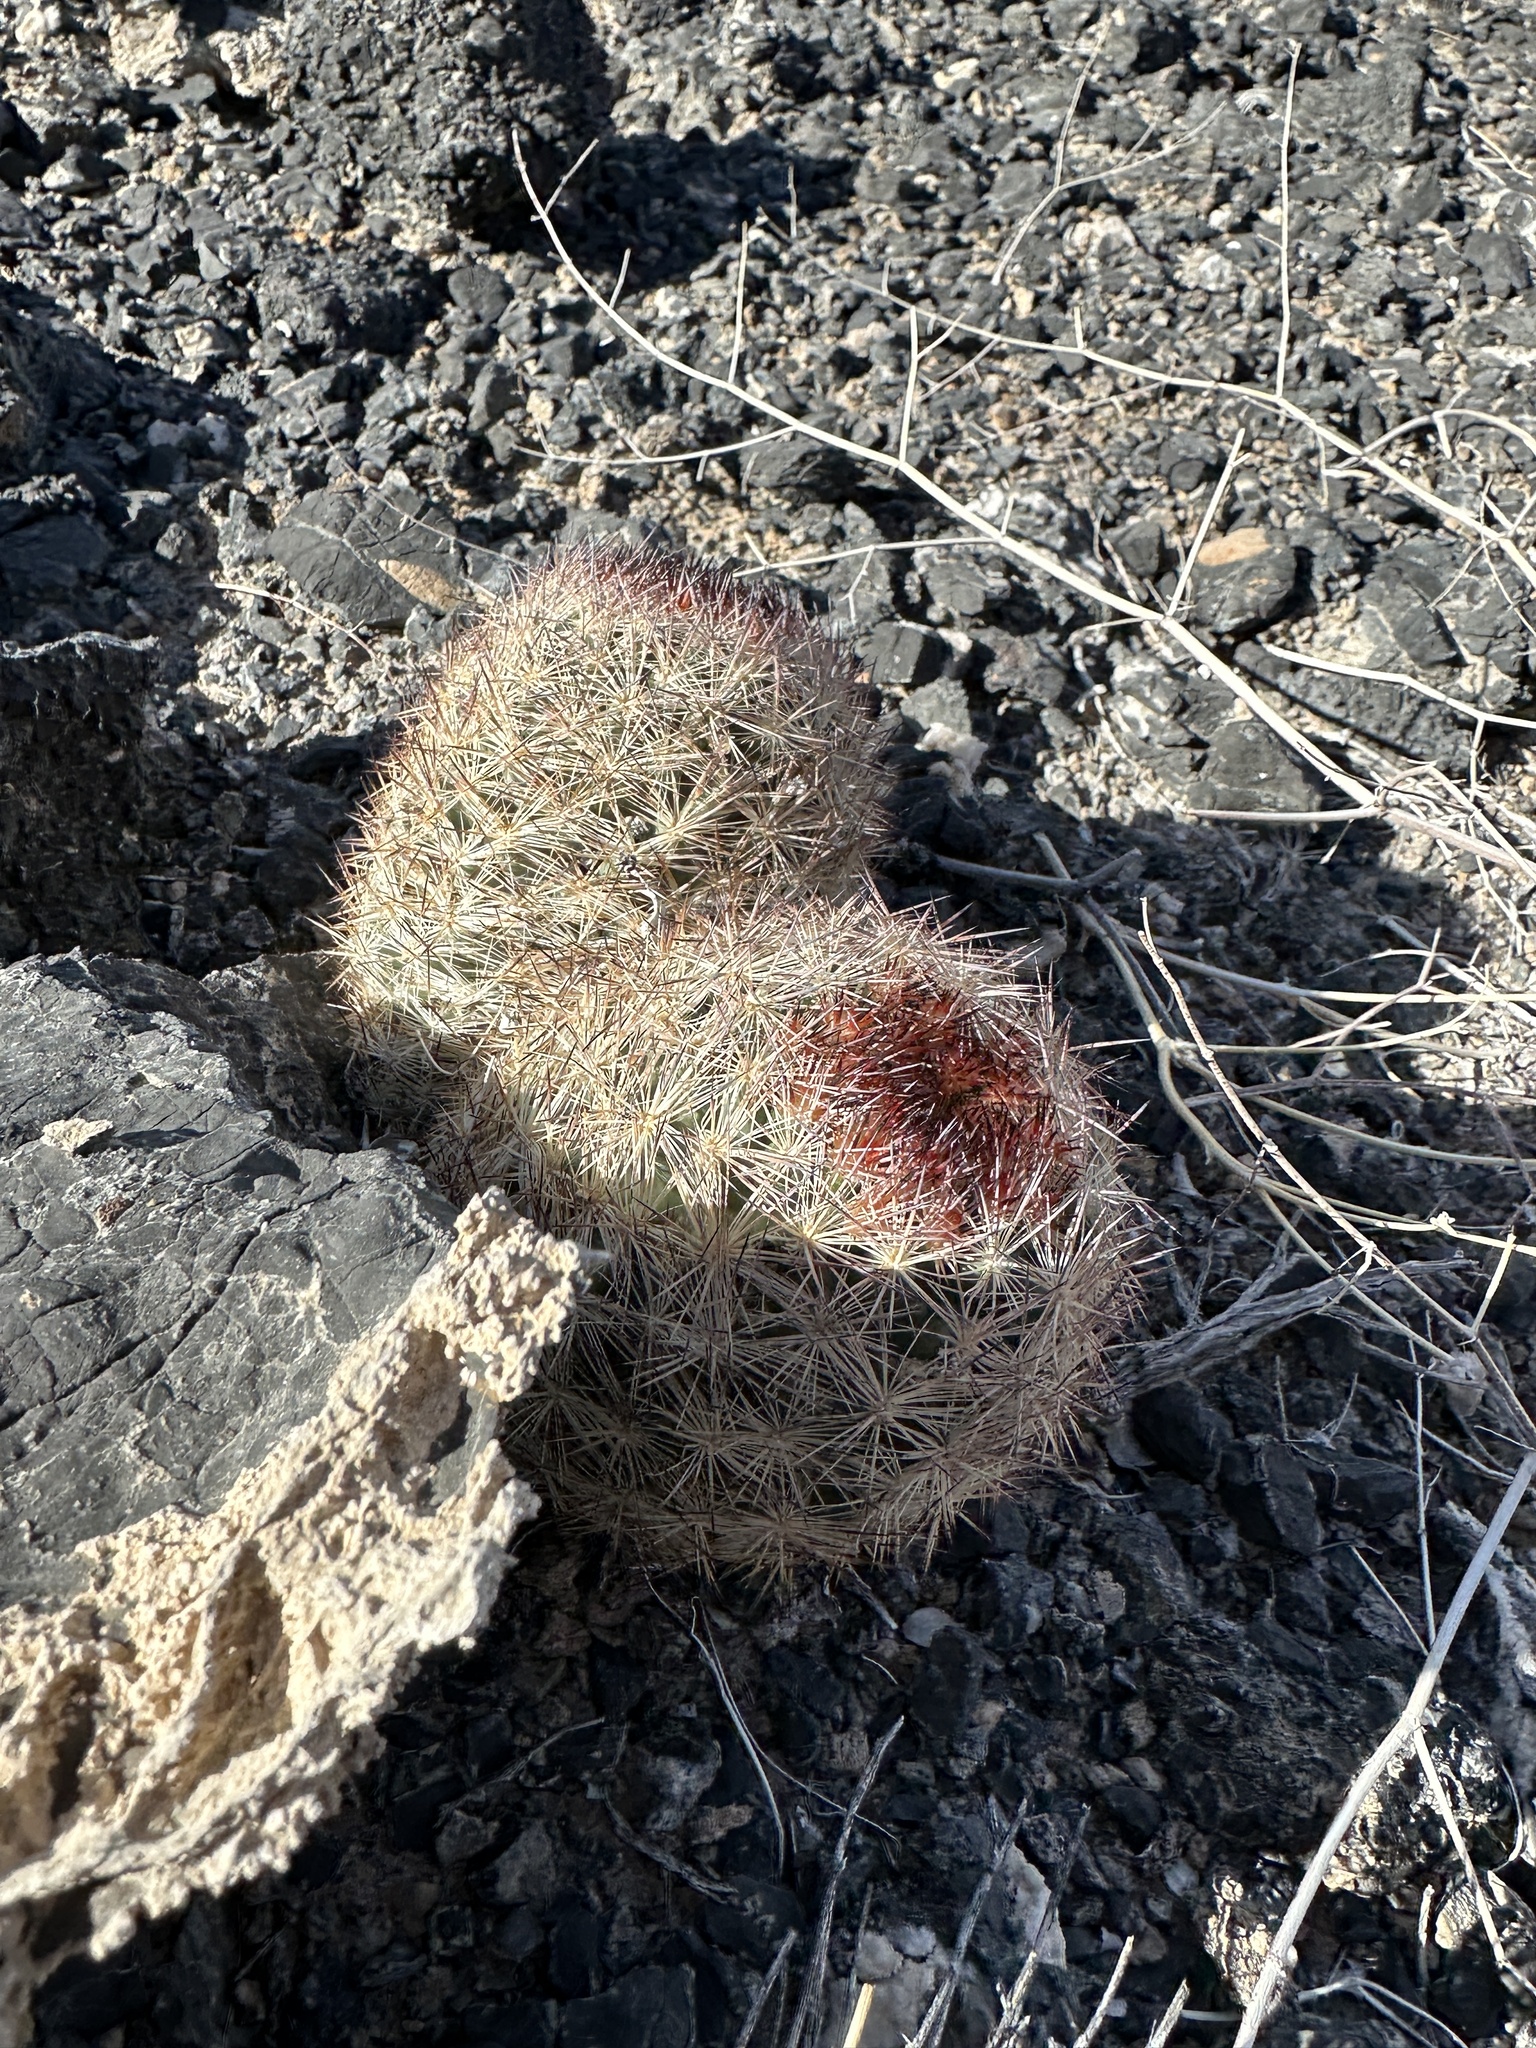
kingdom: Plantae
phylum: Tracheophyta
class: Magnoliopsida
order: Caryophyllales
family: Cactaceae
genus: Pelecyphora
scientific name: Pelecyphora dasyacantha
